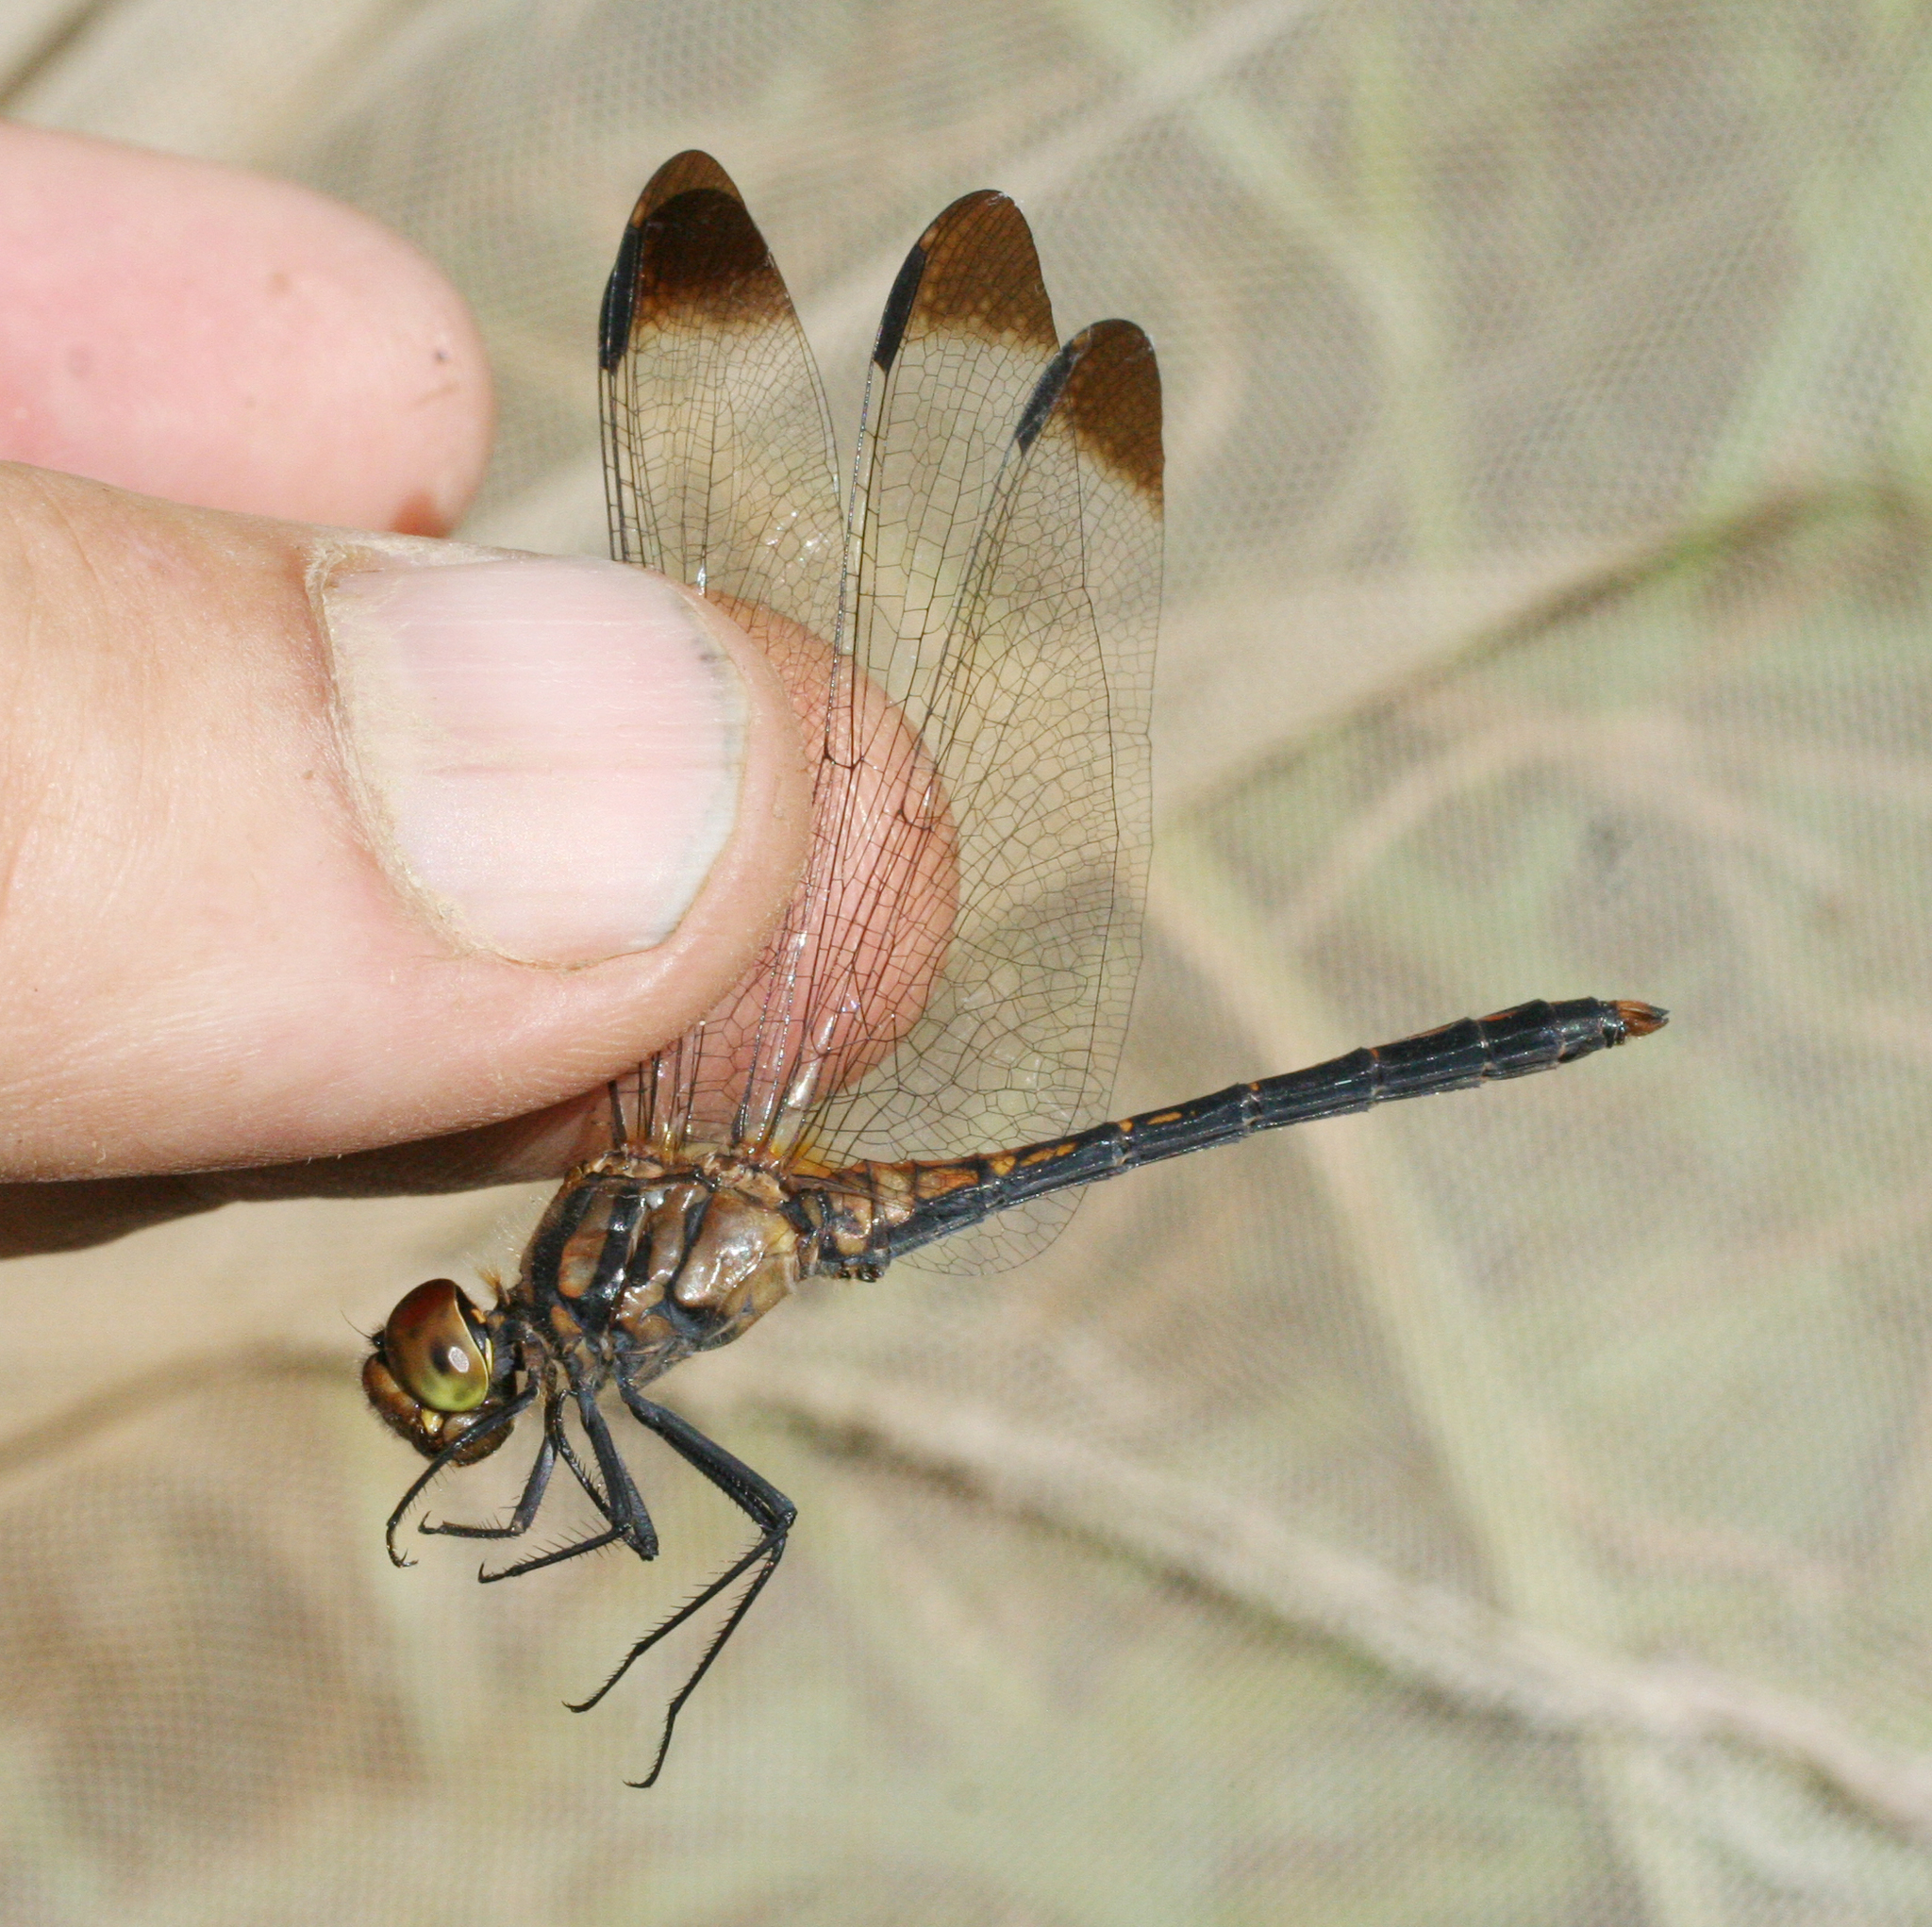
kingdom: Animalia
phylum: Arthropoda
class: Insecta
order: Odonata
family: Libellulidae
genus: Sympetrum
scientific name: Sympetrum infuscatum
